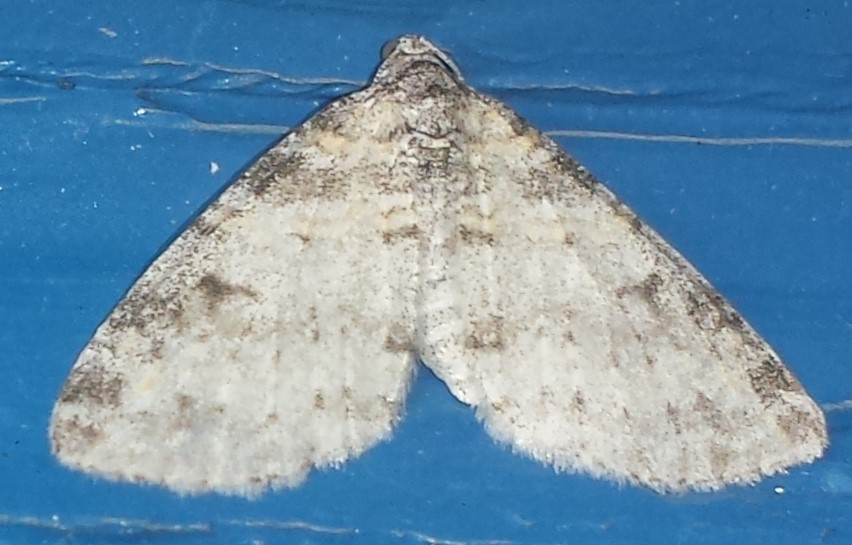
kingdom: Animalia
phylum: Arthropoda
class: Insecta
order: Lepidoptera
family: Geometridae
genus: Lobophora
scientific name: Lobophora nivigerata
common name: Powdered bigwing
